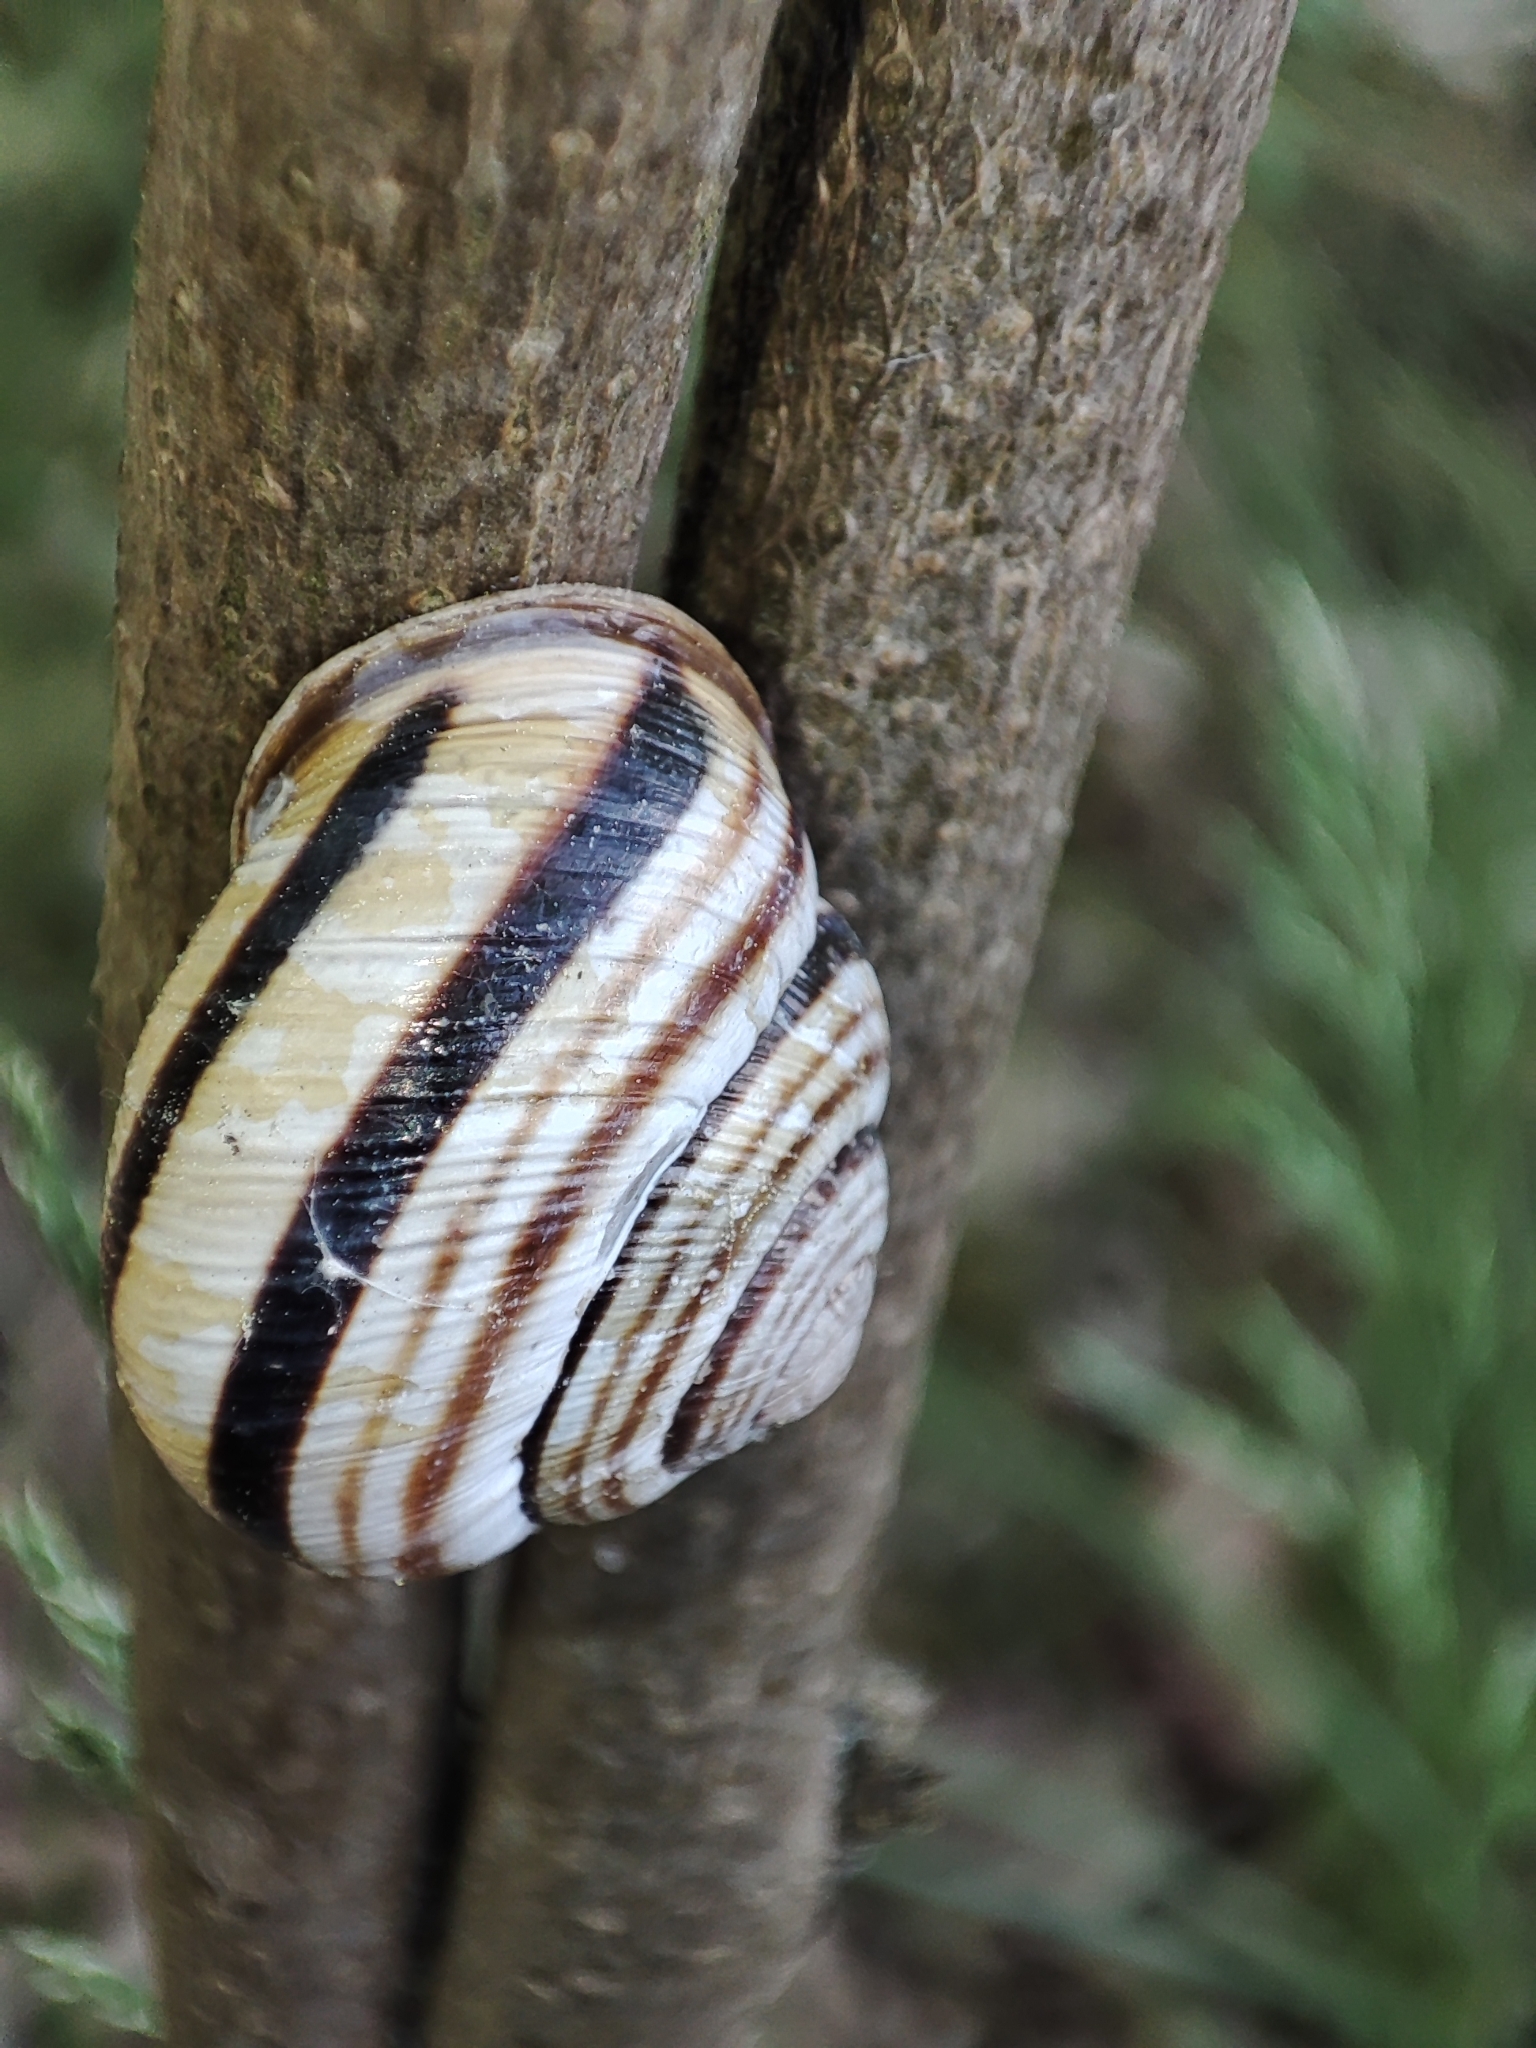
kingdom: Animalia
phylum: Mollusca
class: Gastropoda
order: Stylommatophora
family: Helicidae
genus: Caucasotachea
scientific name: Caucasotachea vindobonensis
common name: European helicid land snail
